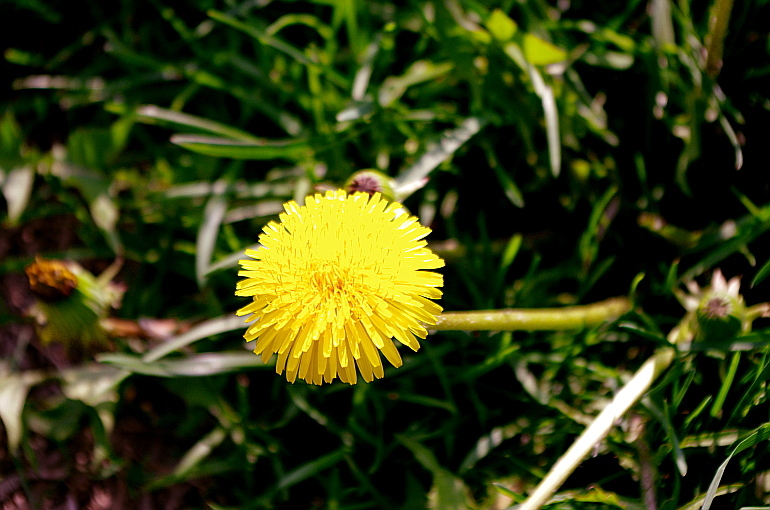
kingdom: Plantae
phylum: Tracheophyta
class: Magnoliopsida
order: Asterales
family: Asteraceae
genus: Taraxacum
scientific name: Taraxacum officinale
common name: Common dandelion
